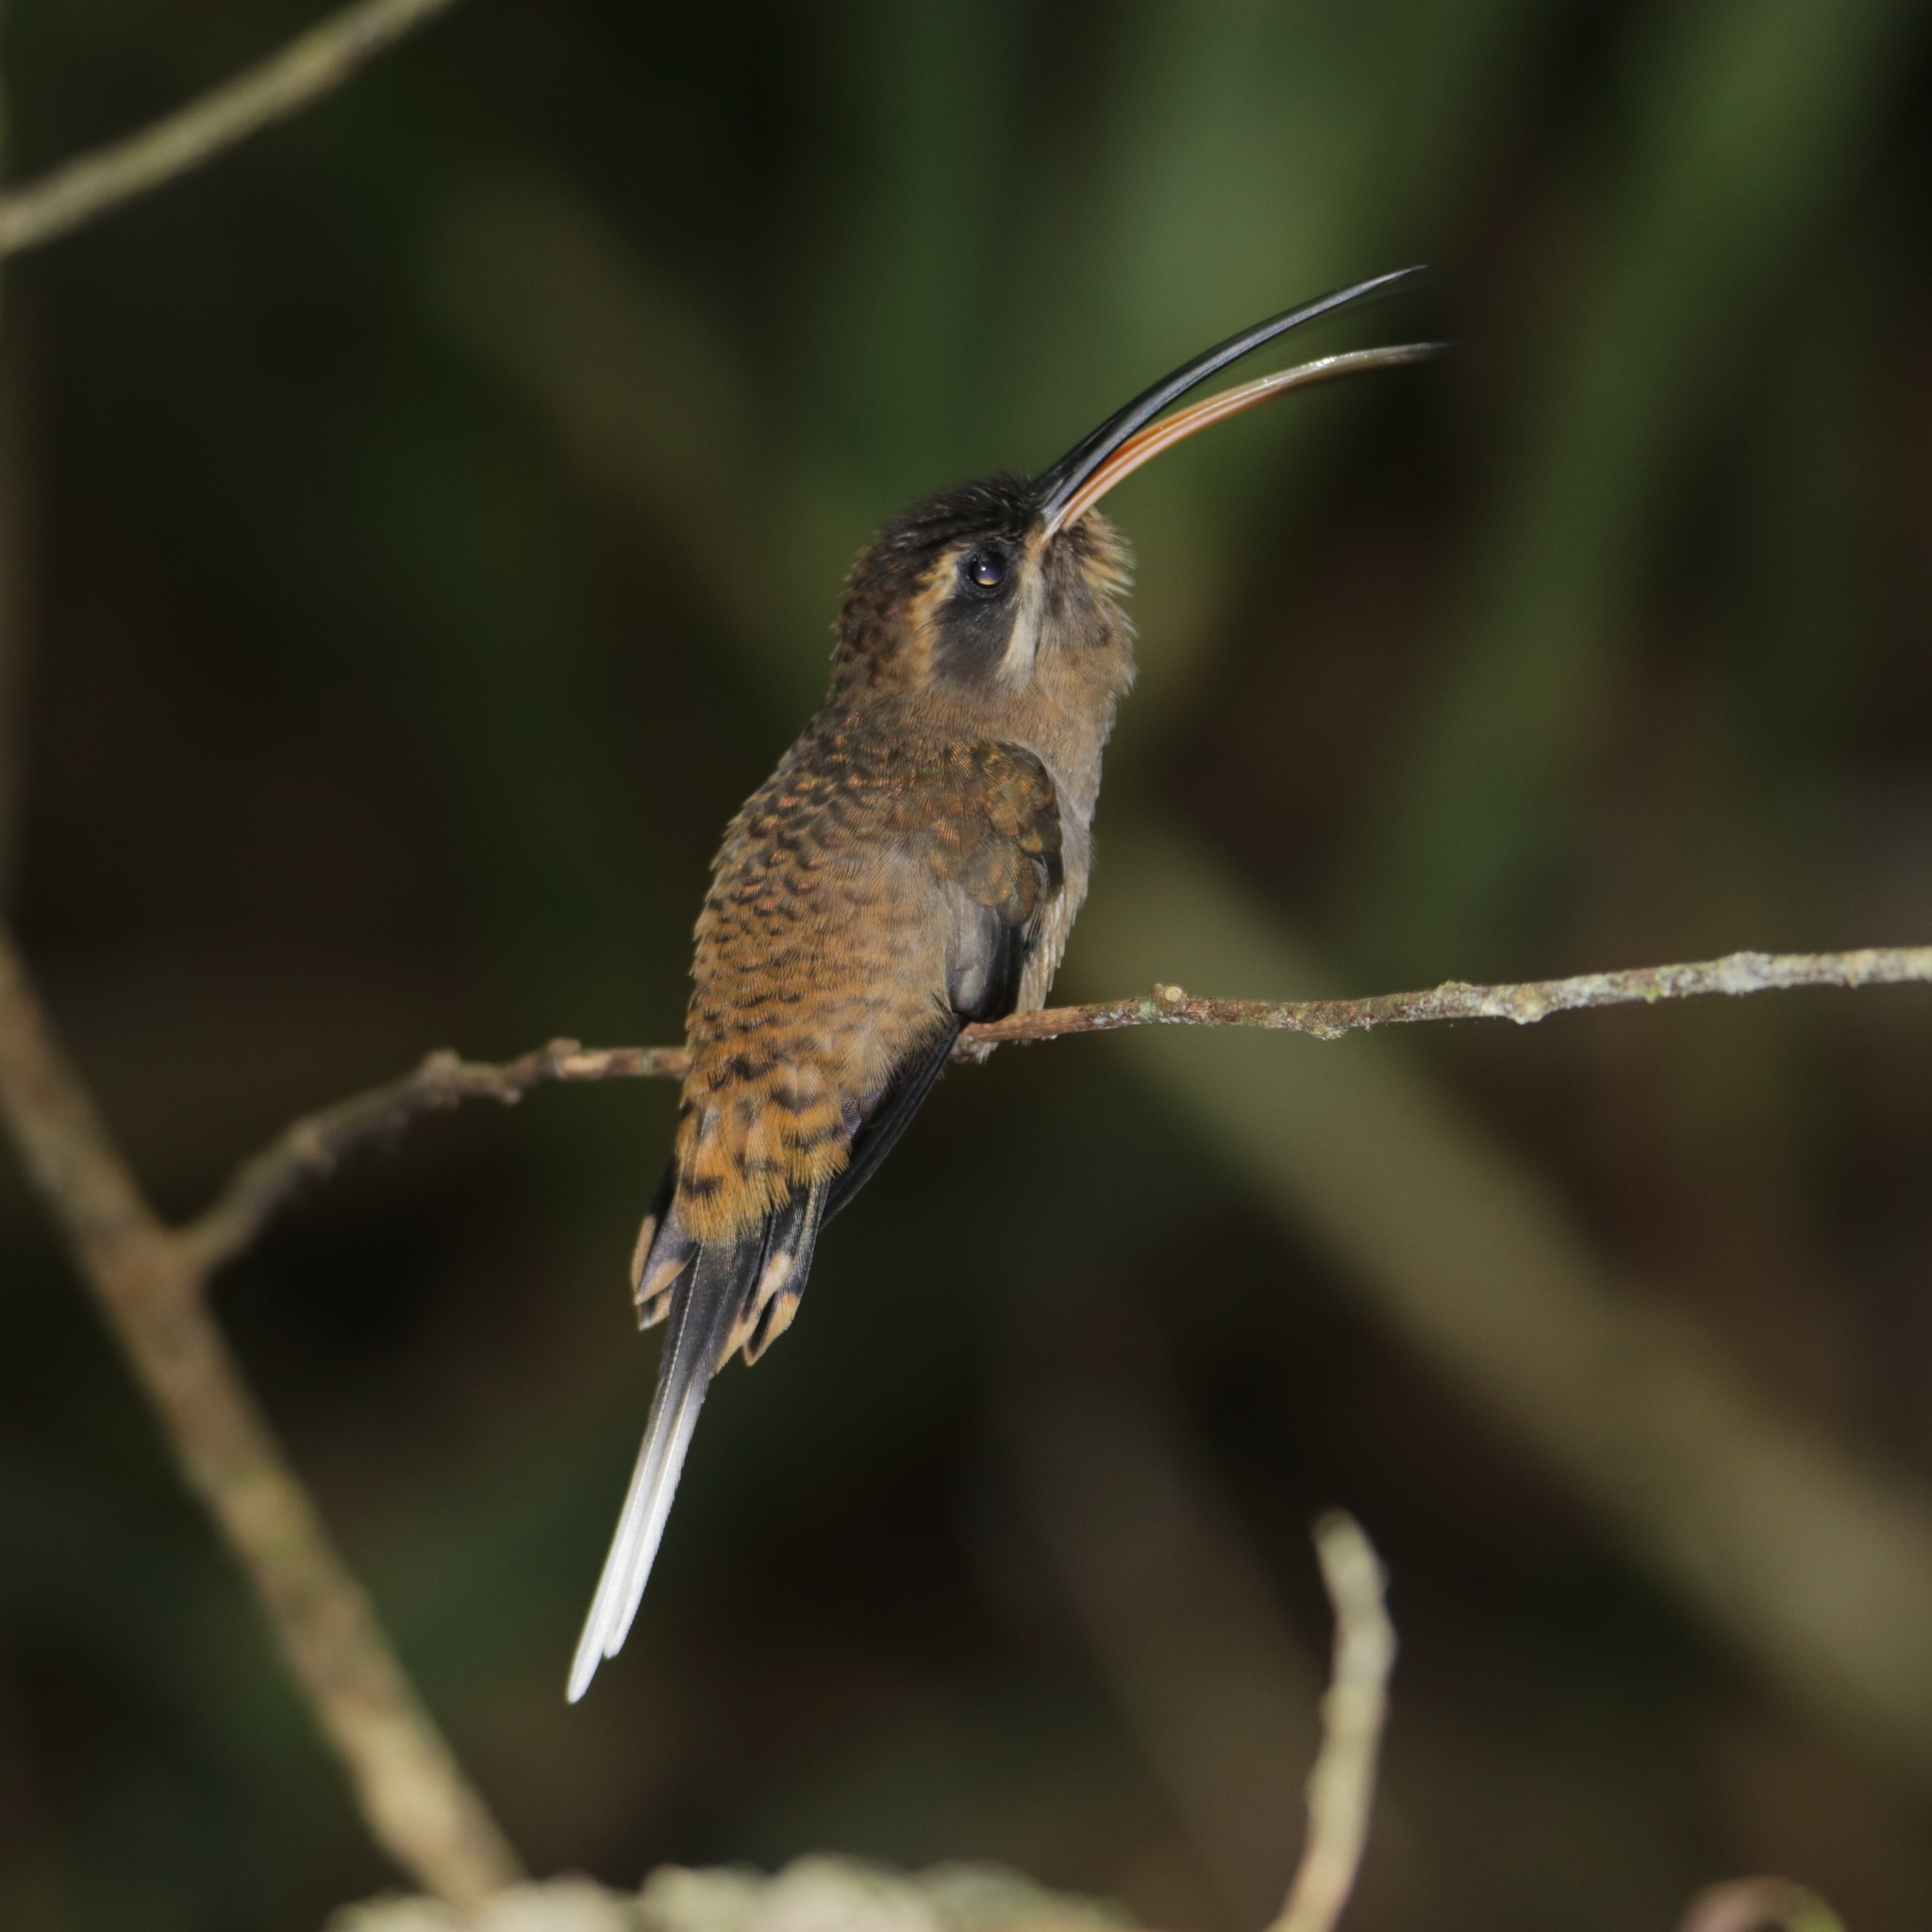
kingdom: Animalia
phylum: Chordata
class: Aves
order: Apodiformes
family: Trochilidae
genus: Phaethornis
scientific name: Phaethornis longirostris
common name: Long-billed hermit
